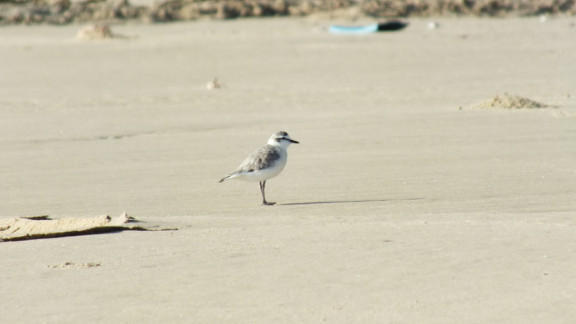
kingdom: Animalia
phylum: Chordata
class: Aves
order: Charadriiformes
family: Charadriidae
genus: Anarhynchus
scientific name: Anarhynchus
